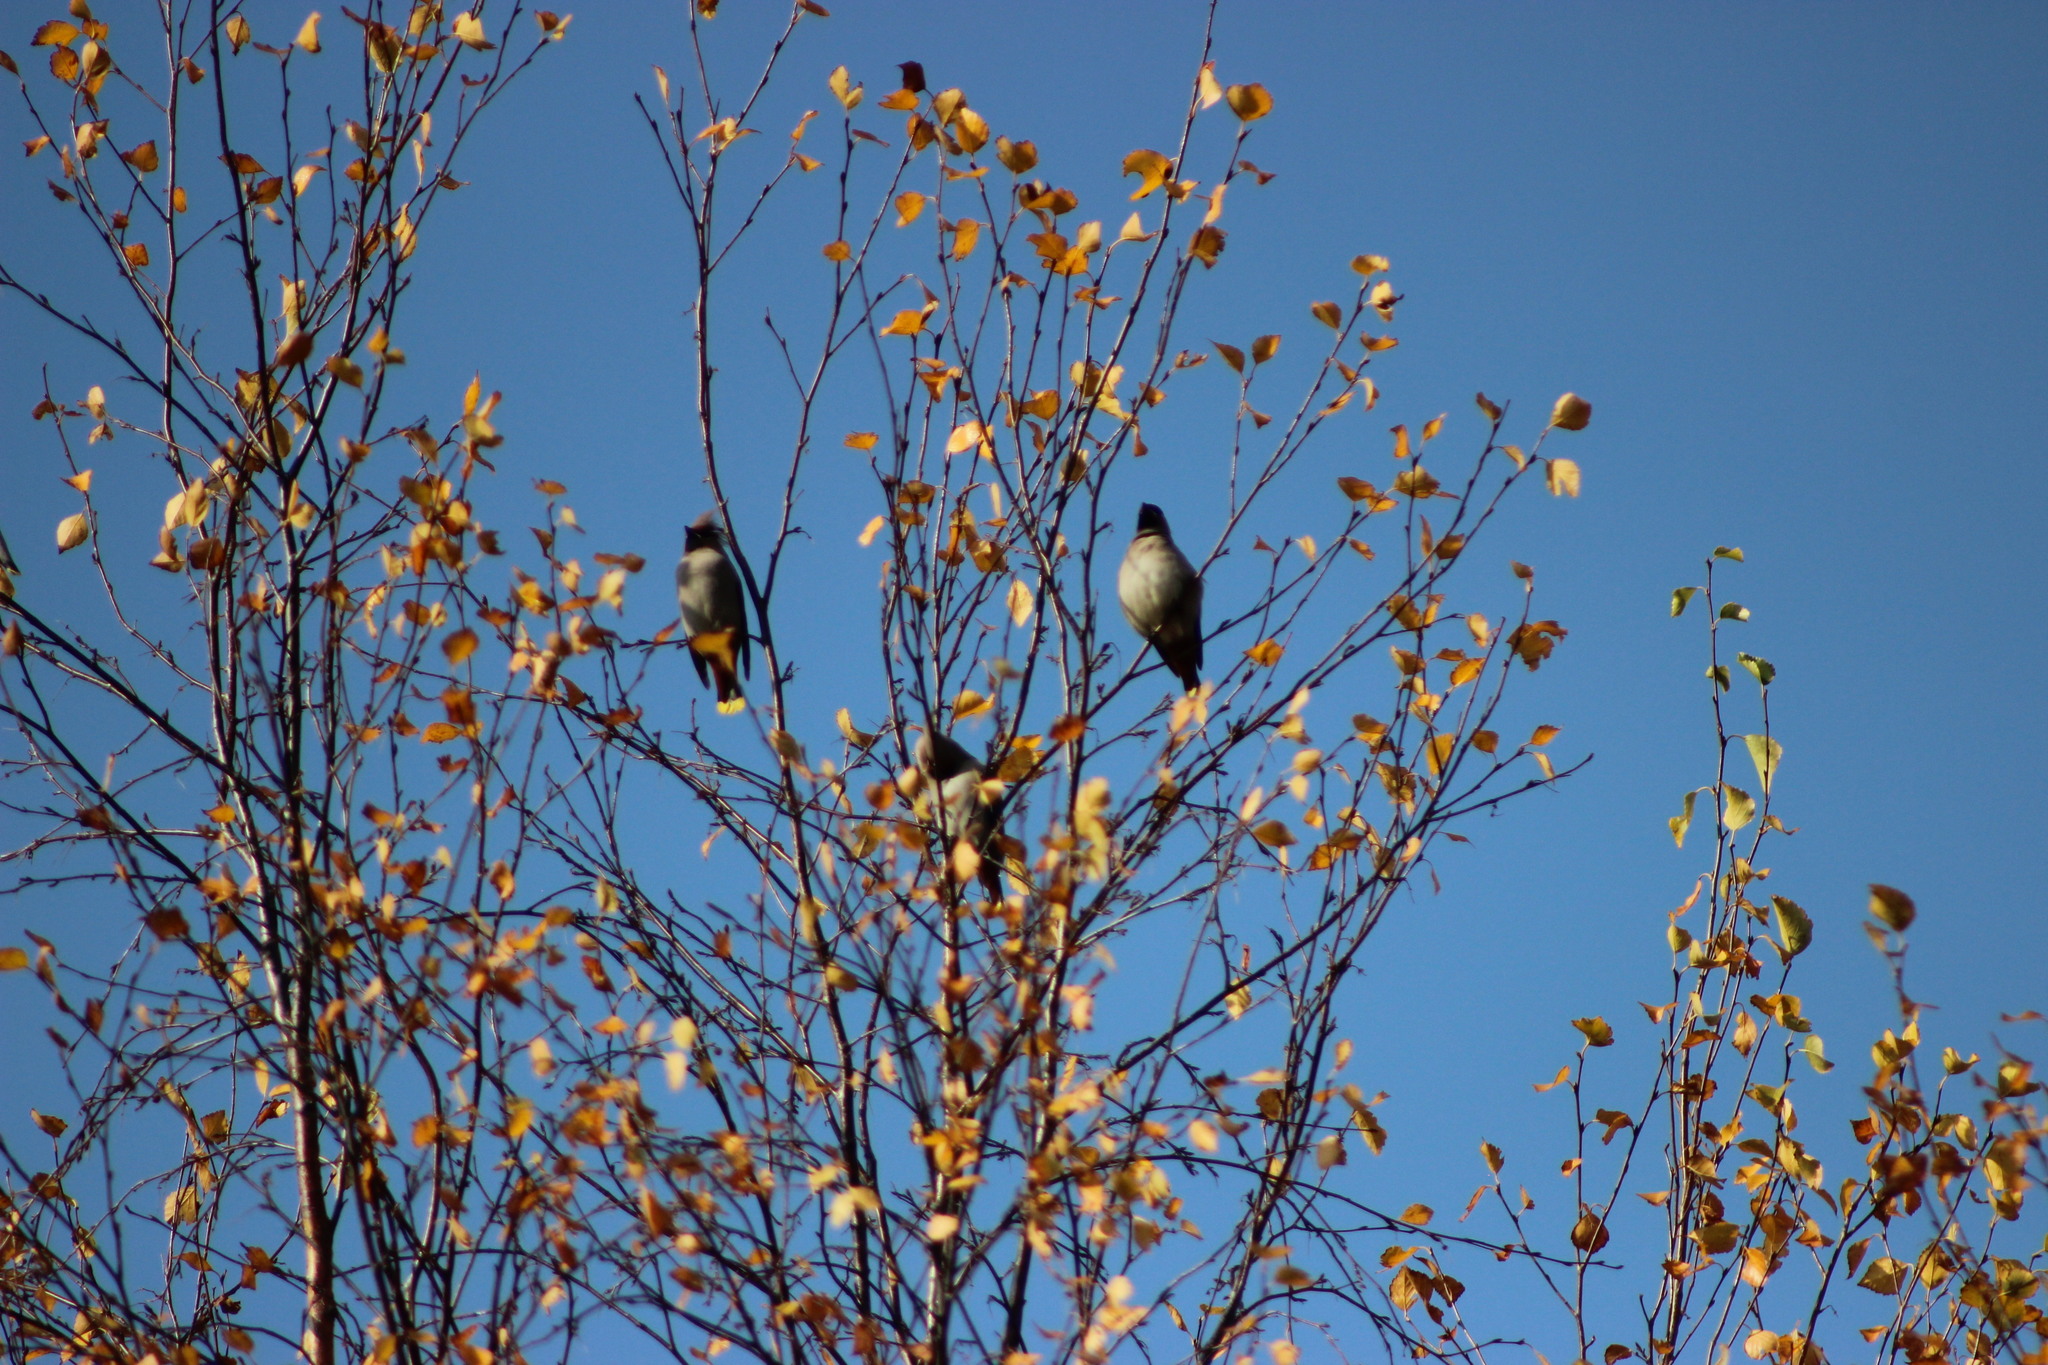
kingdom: Animalia
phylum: Chordata
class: Aves
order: Passeriformes
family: Bombycillidae
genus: Bombycilla
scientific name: Bombycilla garrulus
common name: Bohemian waxwing
